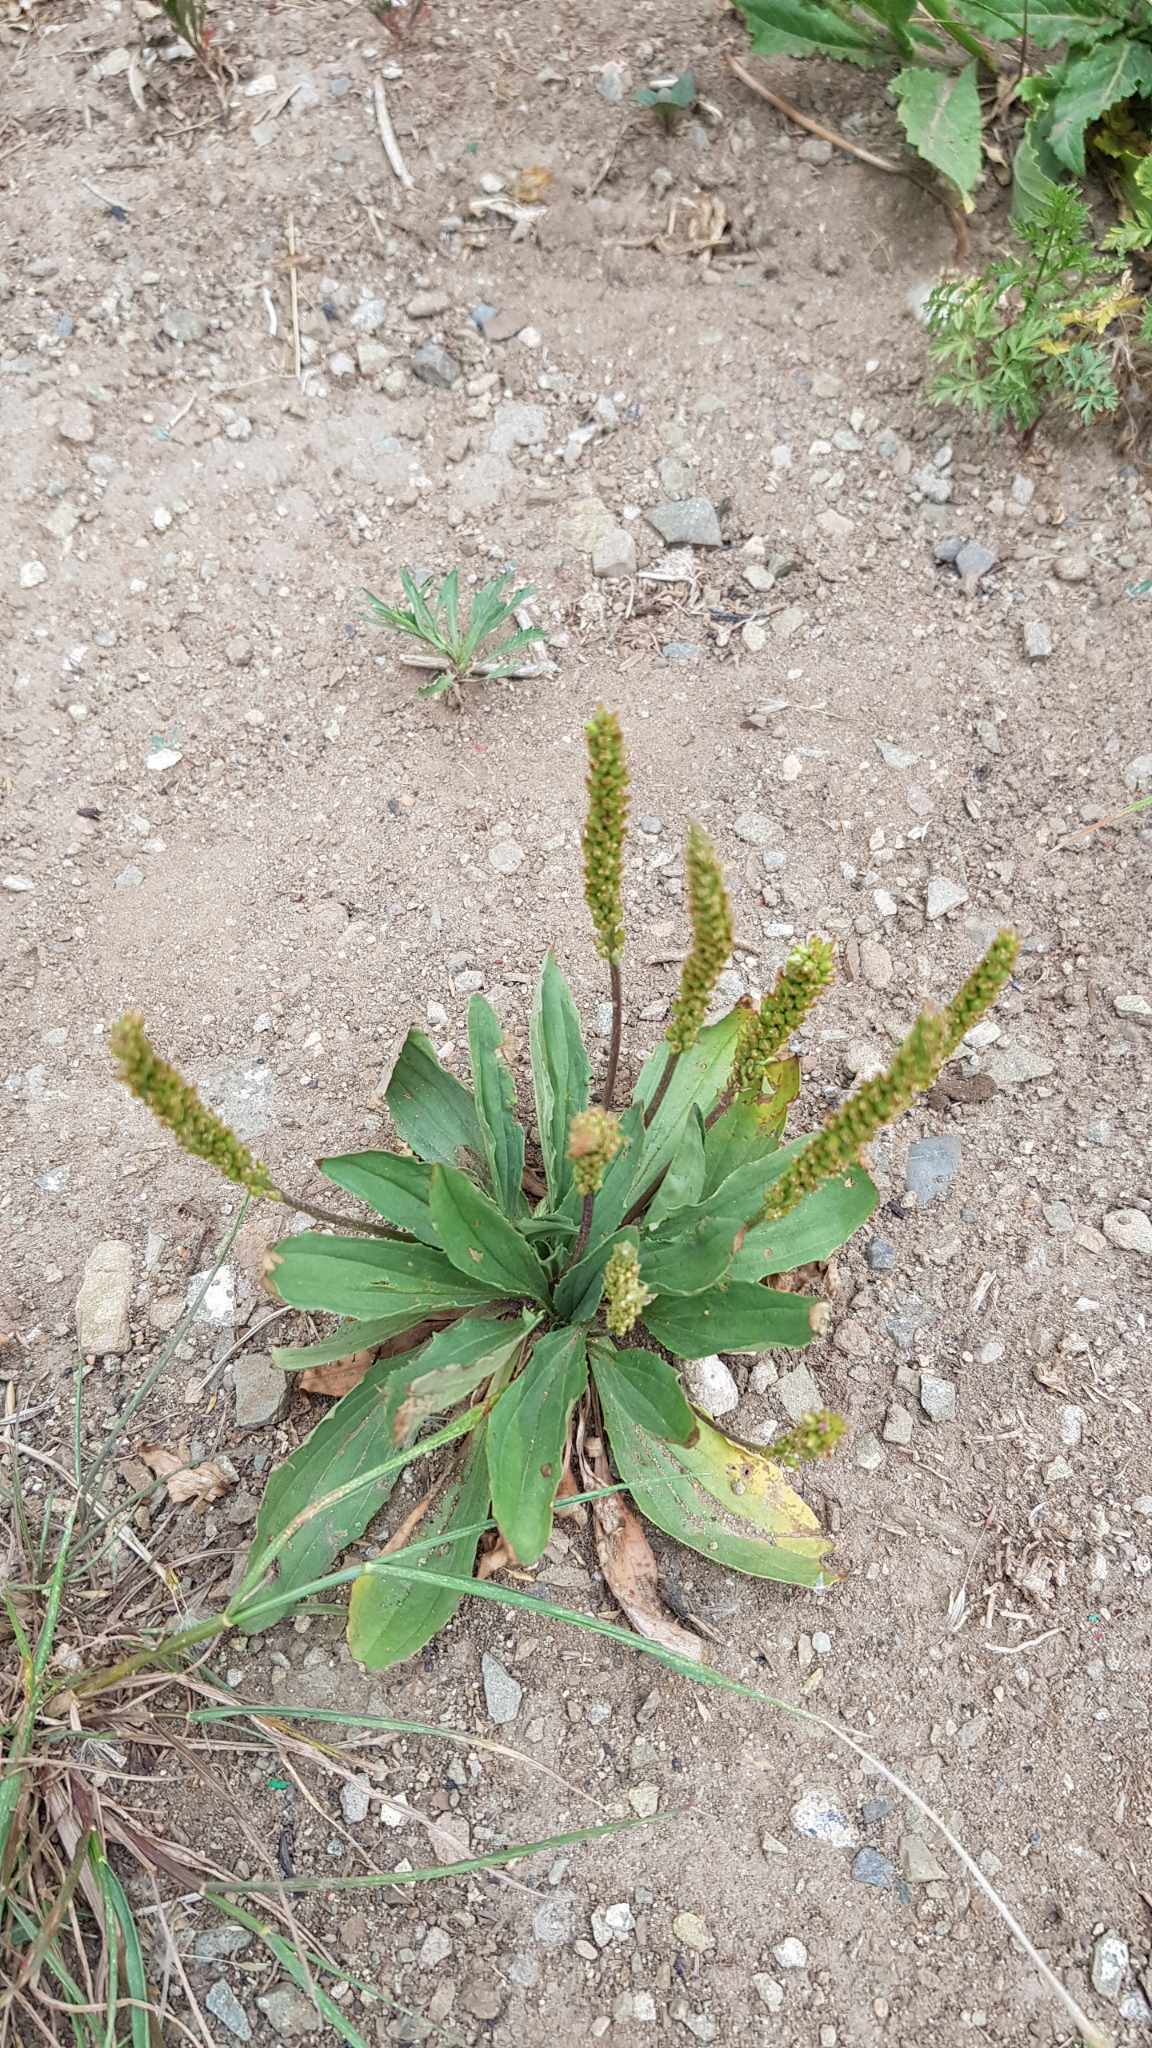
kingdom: Plantae
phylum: Tracheophyta
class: Magnoliopsida
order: Lamiales
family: Plantaginaceae
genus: Plantago
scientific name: Plantago depressa
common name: Depressed plantain
